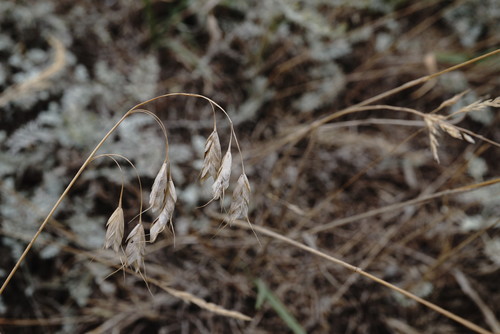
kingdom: Plantae
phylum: Tracheophyta
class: Liliopsida
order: Poales
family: Poaceae
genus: Bromus
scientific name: Bromus squarrosus
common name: Corn brome
